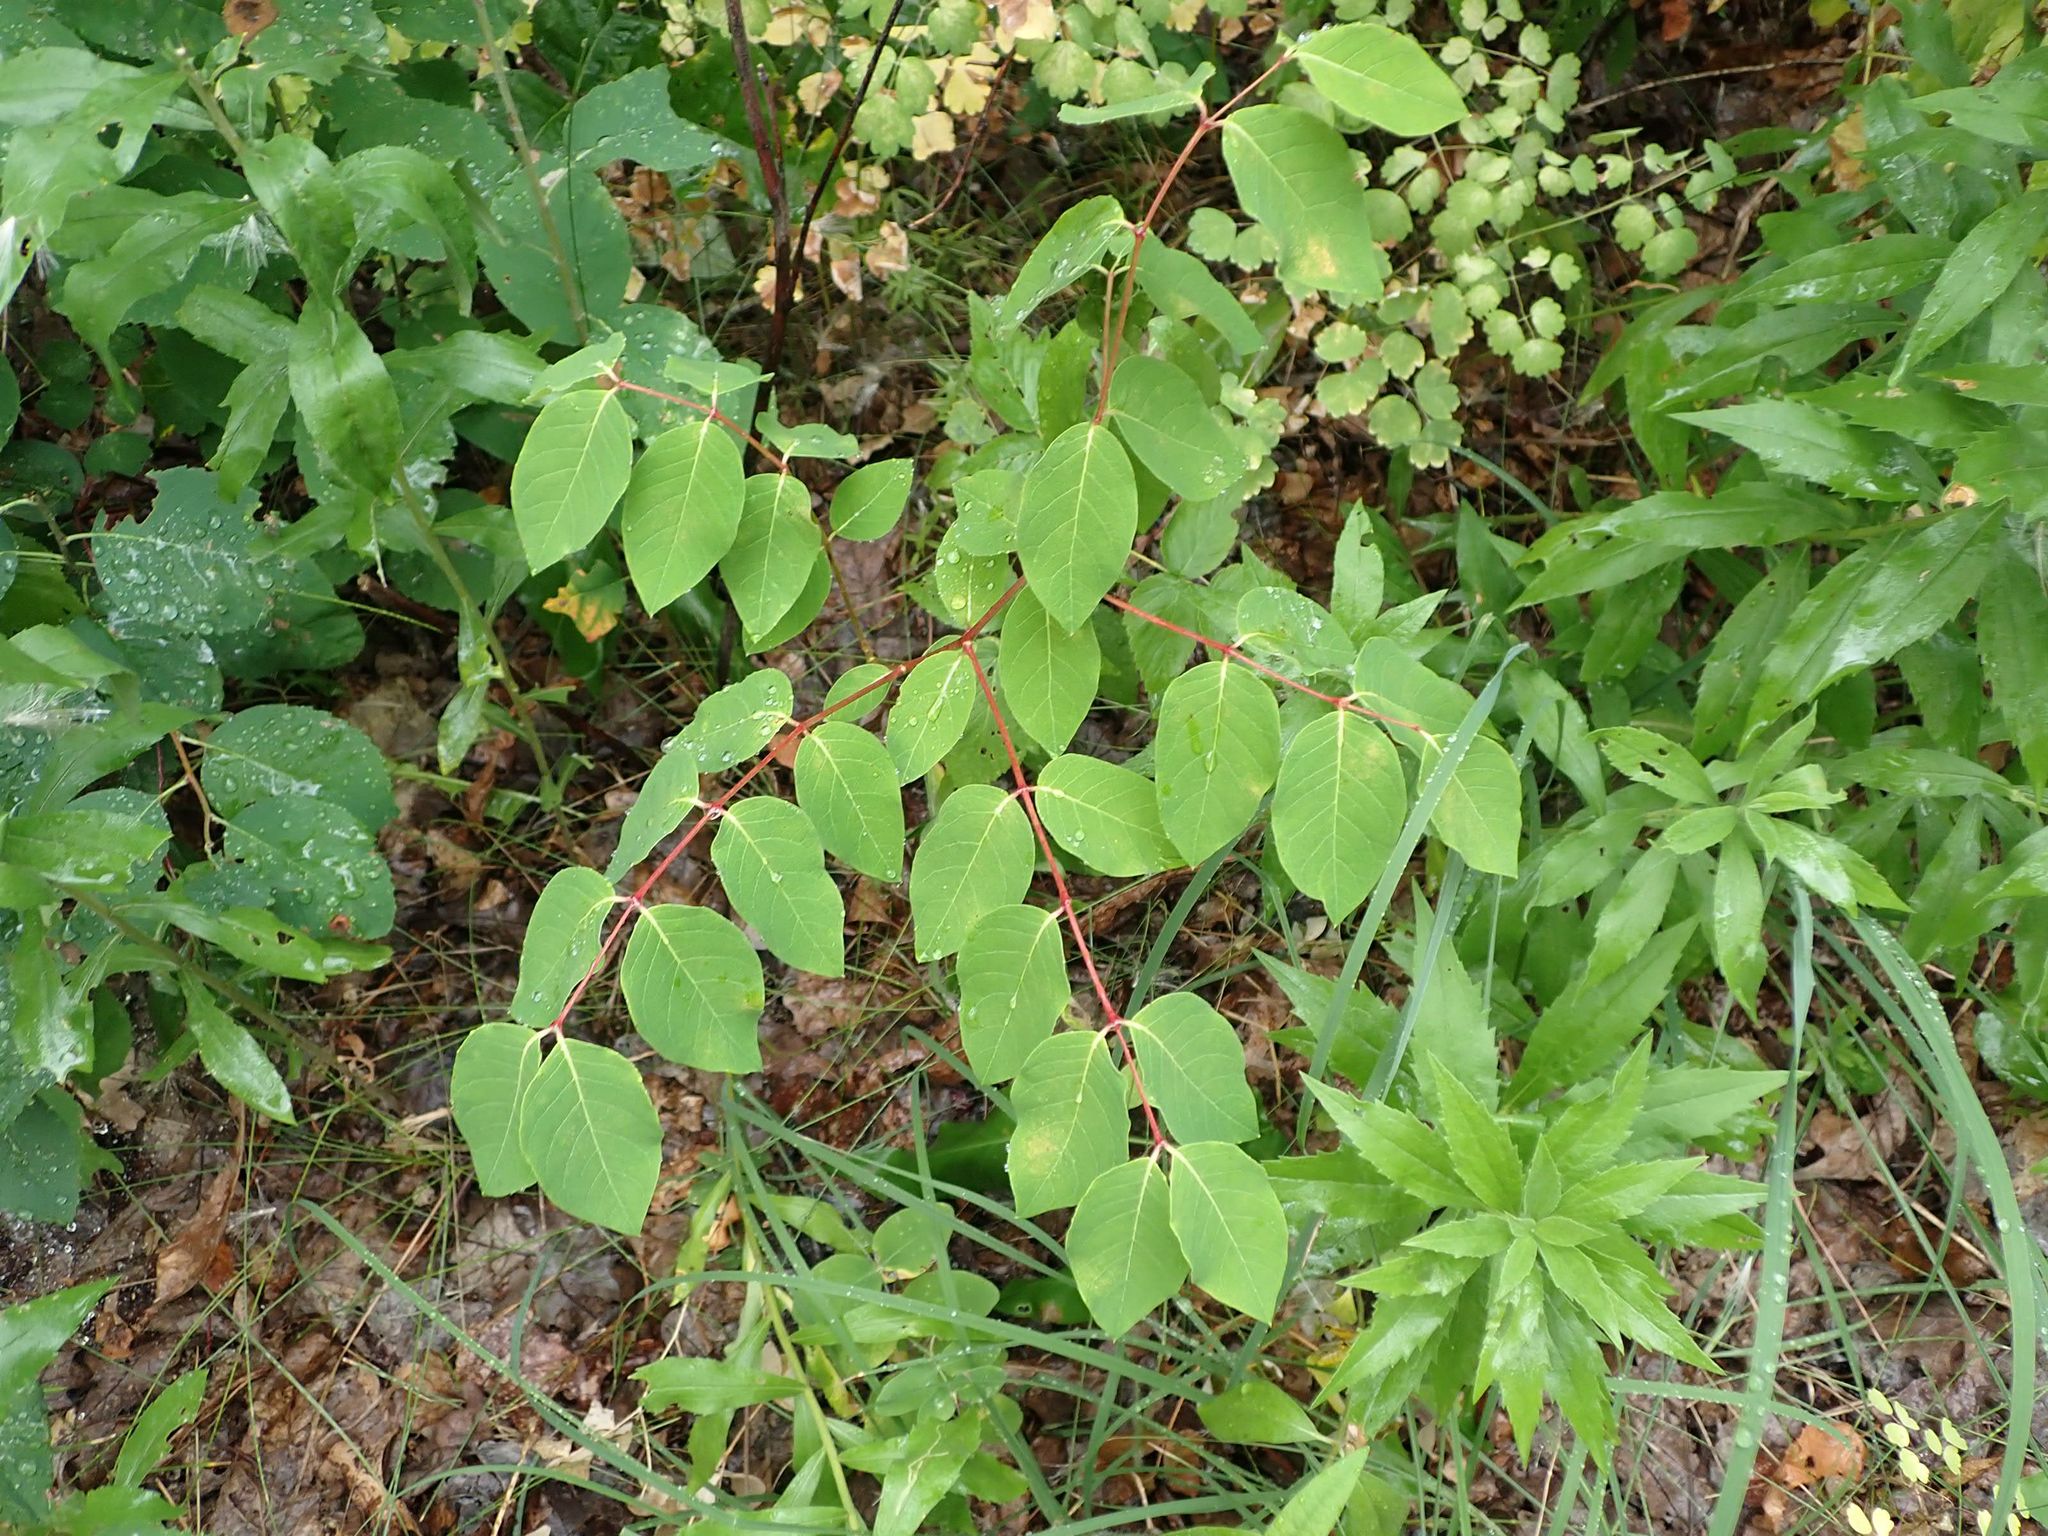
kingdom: Plantae
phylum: Tracheophyta
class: Magnoliopsida
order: Gentianales
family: Apocynaceae
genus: Apocynum
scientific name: Apocynum androsaemifolium
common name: Spreading dogbane
